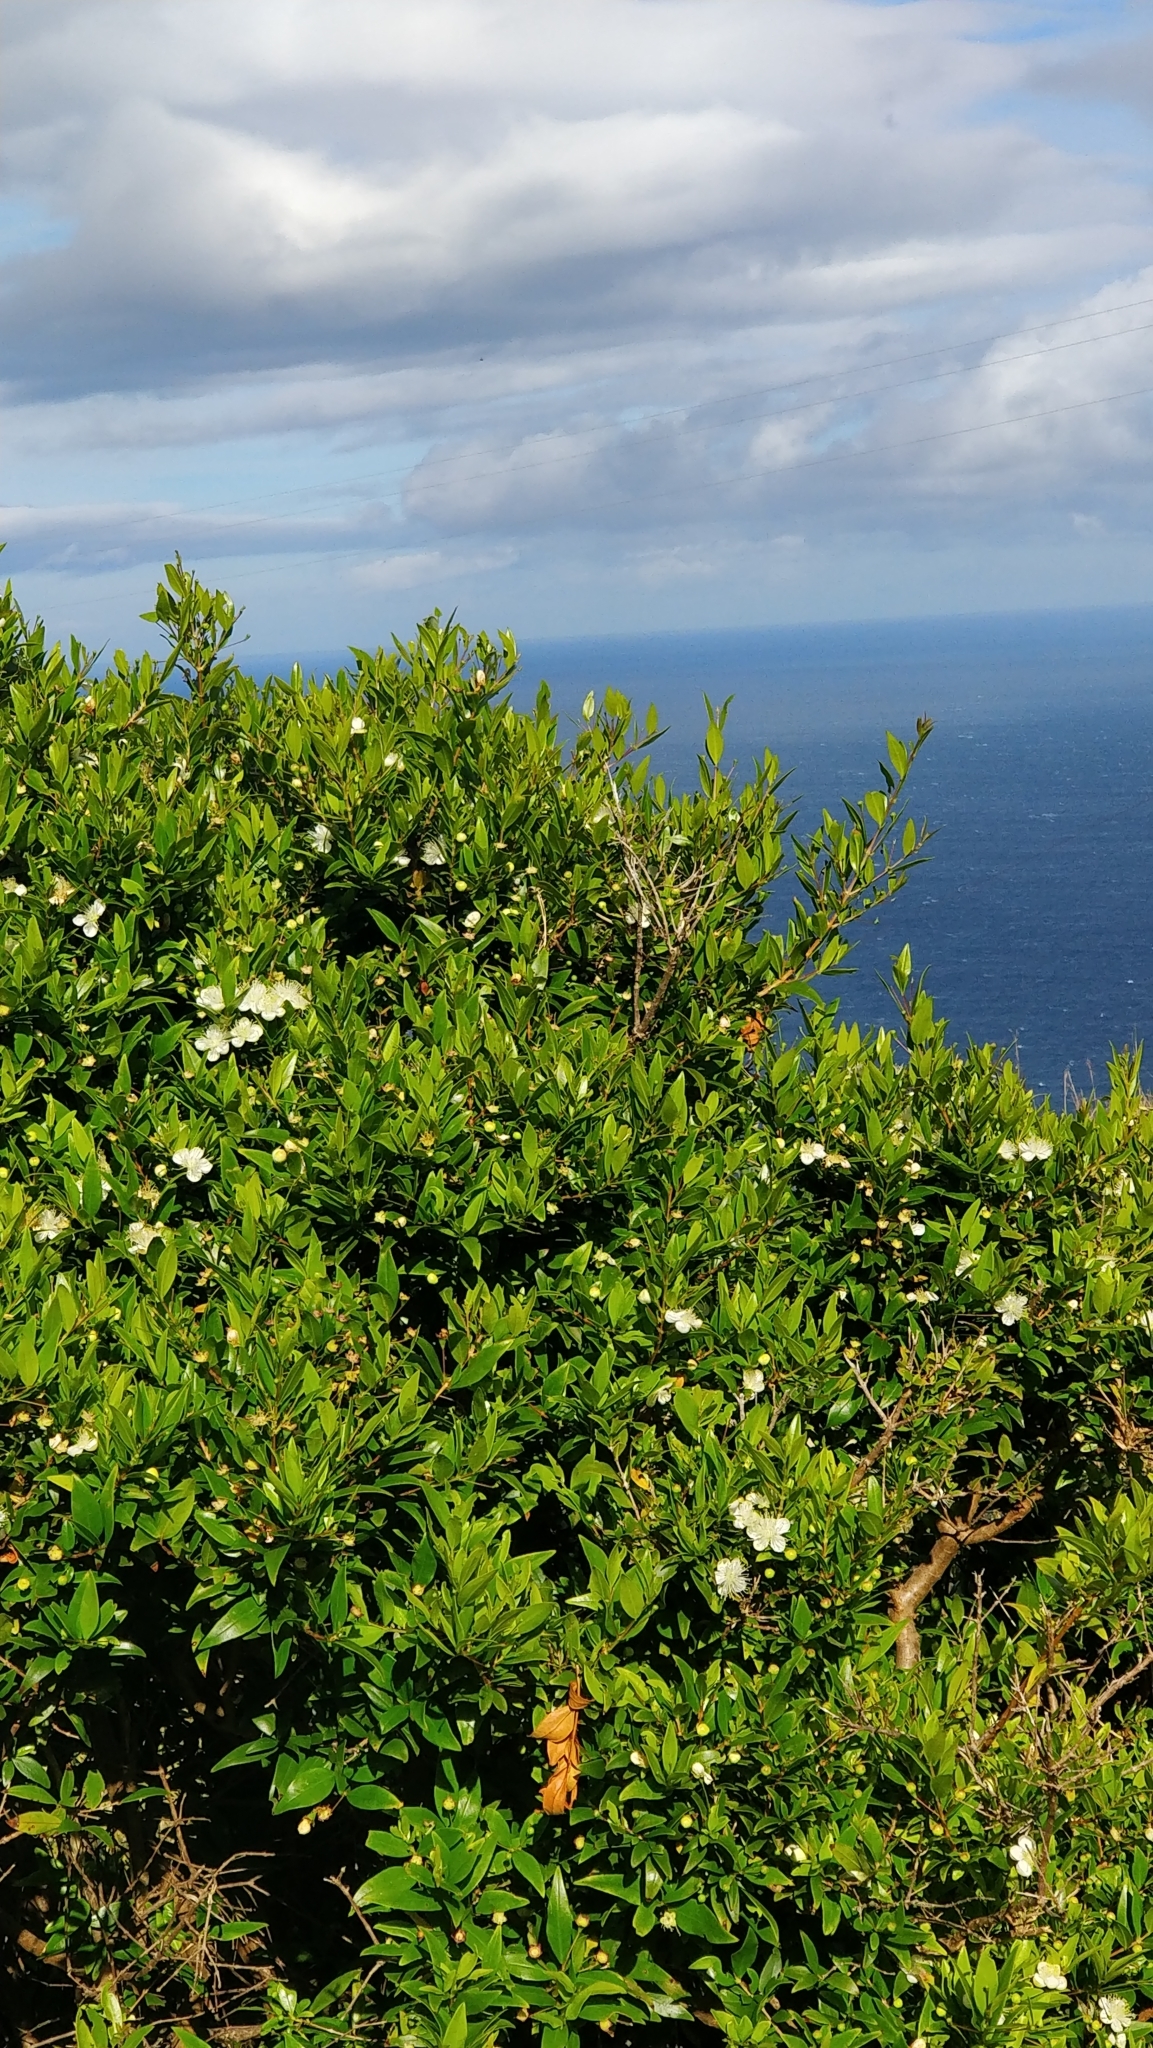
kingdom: Plantae
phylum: Tracheophyta
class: Magnoliopsida
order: Myrtales
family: Myrtaceae
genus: Myrtus
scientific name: Myrtus communis
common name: Myrtle
